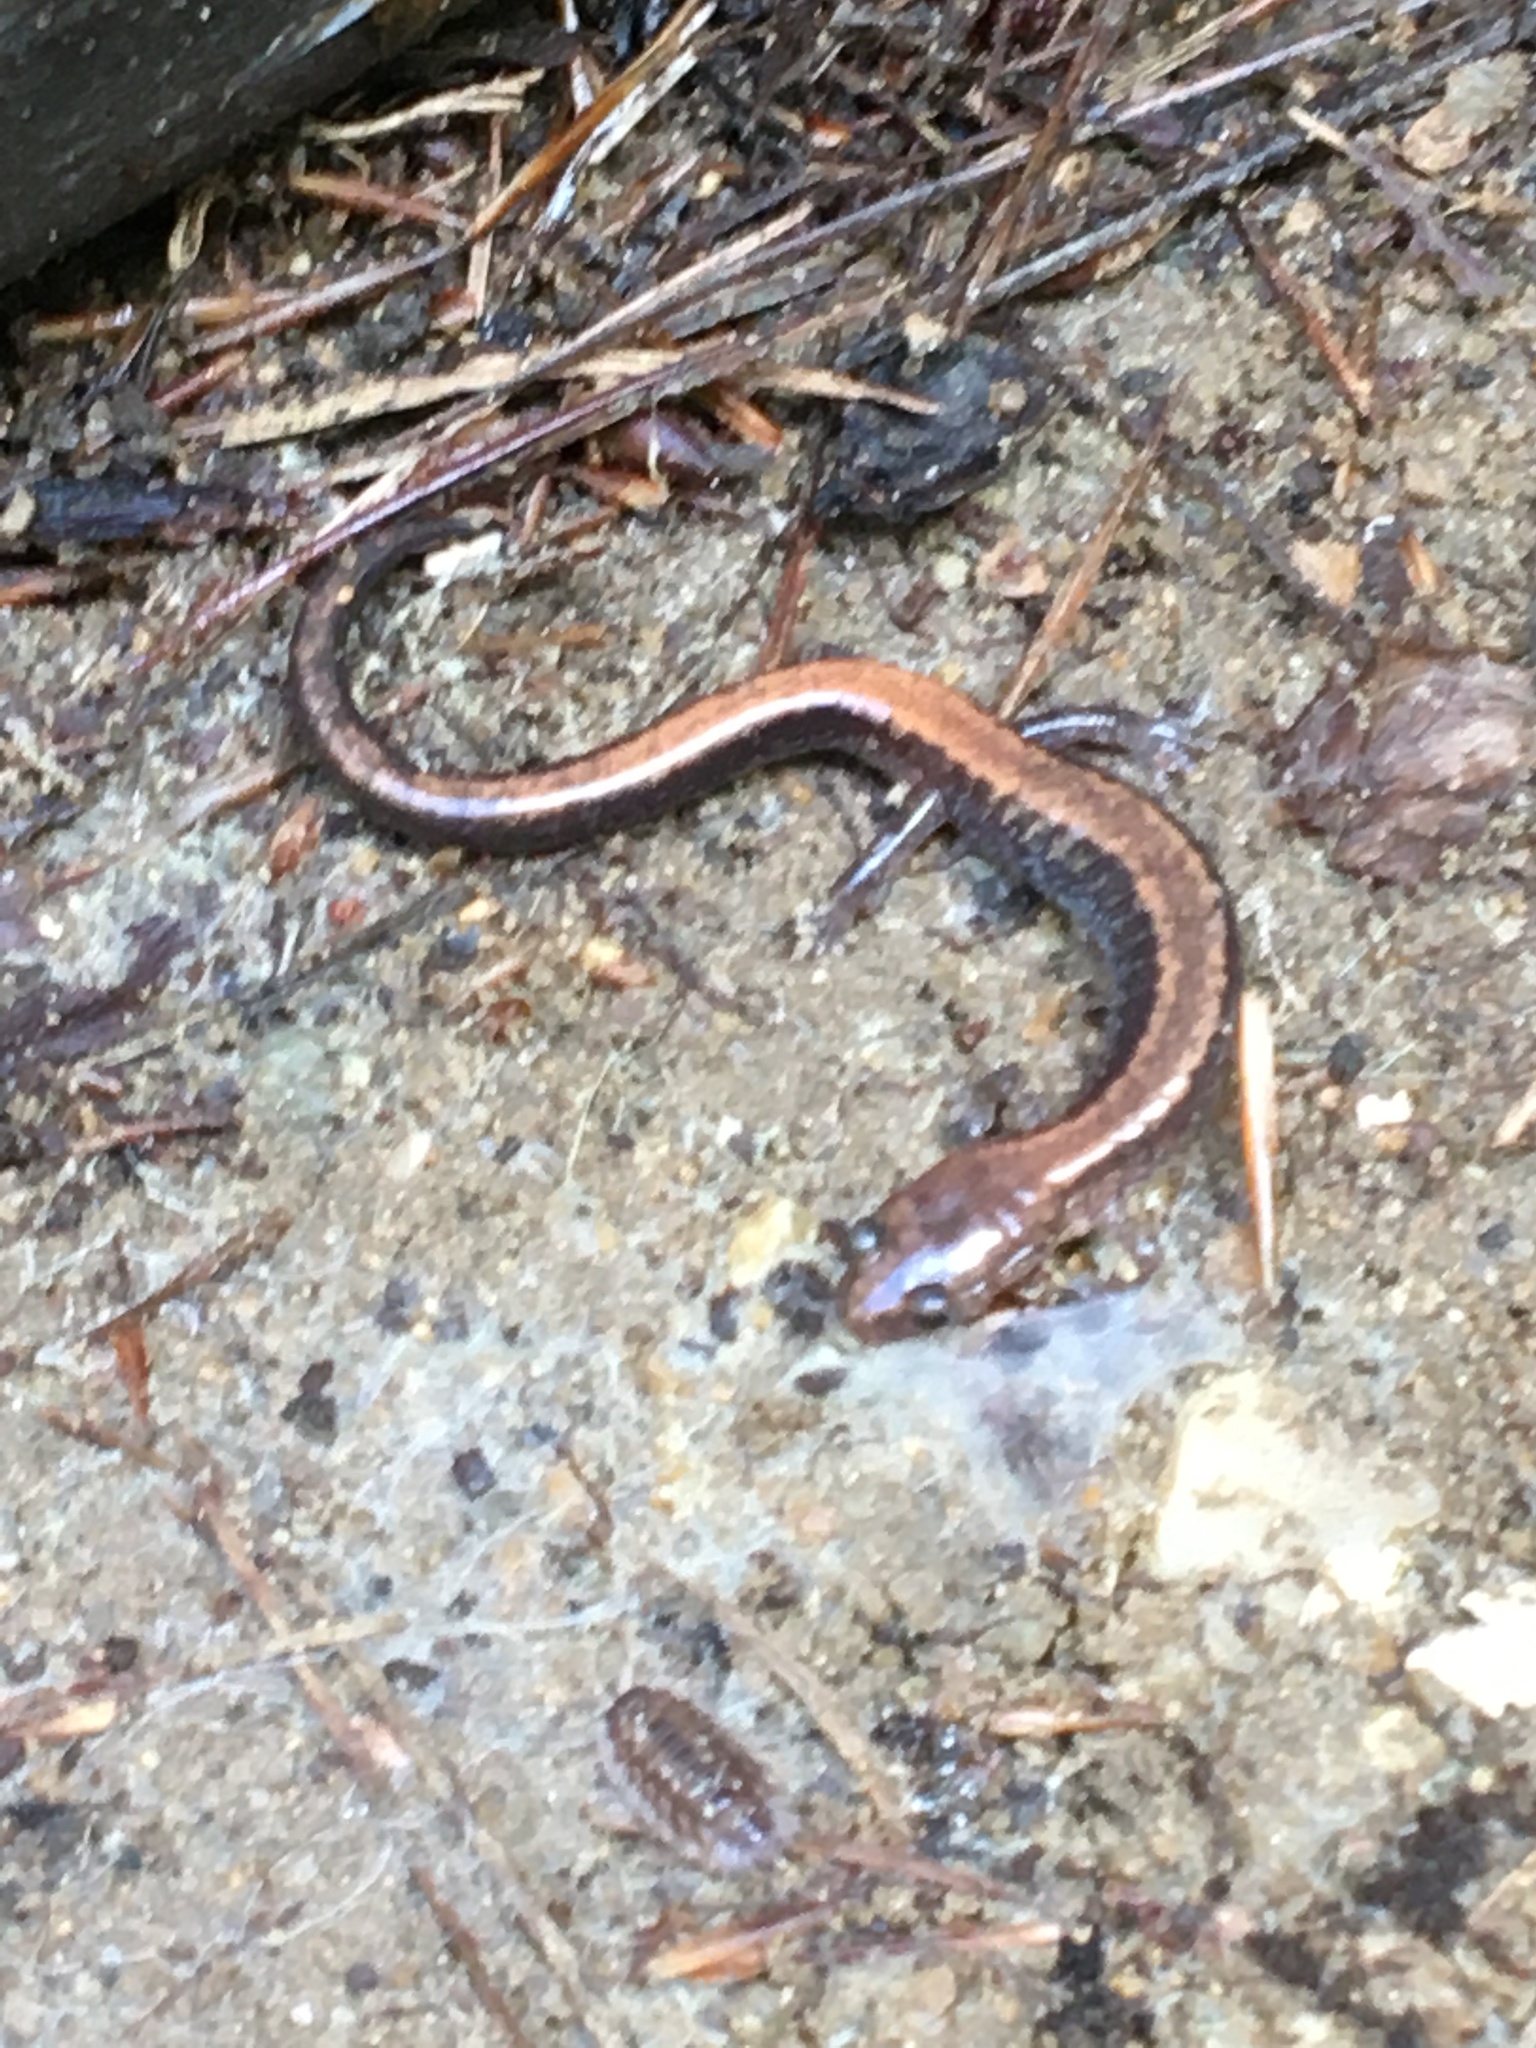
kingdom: Animalia
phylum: Chordata
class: Amphibia
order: Caudata
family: Plethodontidae
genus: Plethodon
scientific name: Plethodon cinereus
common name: Redback salamander
